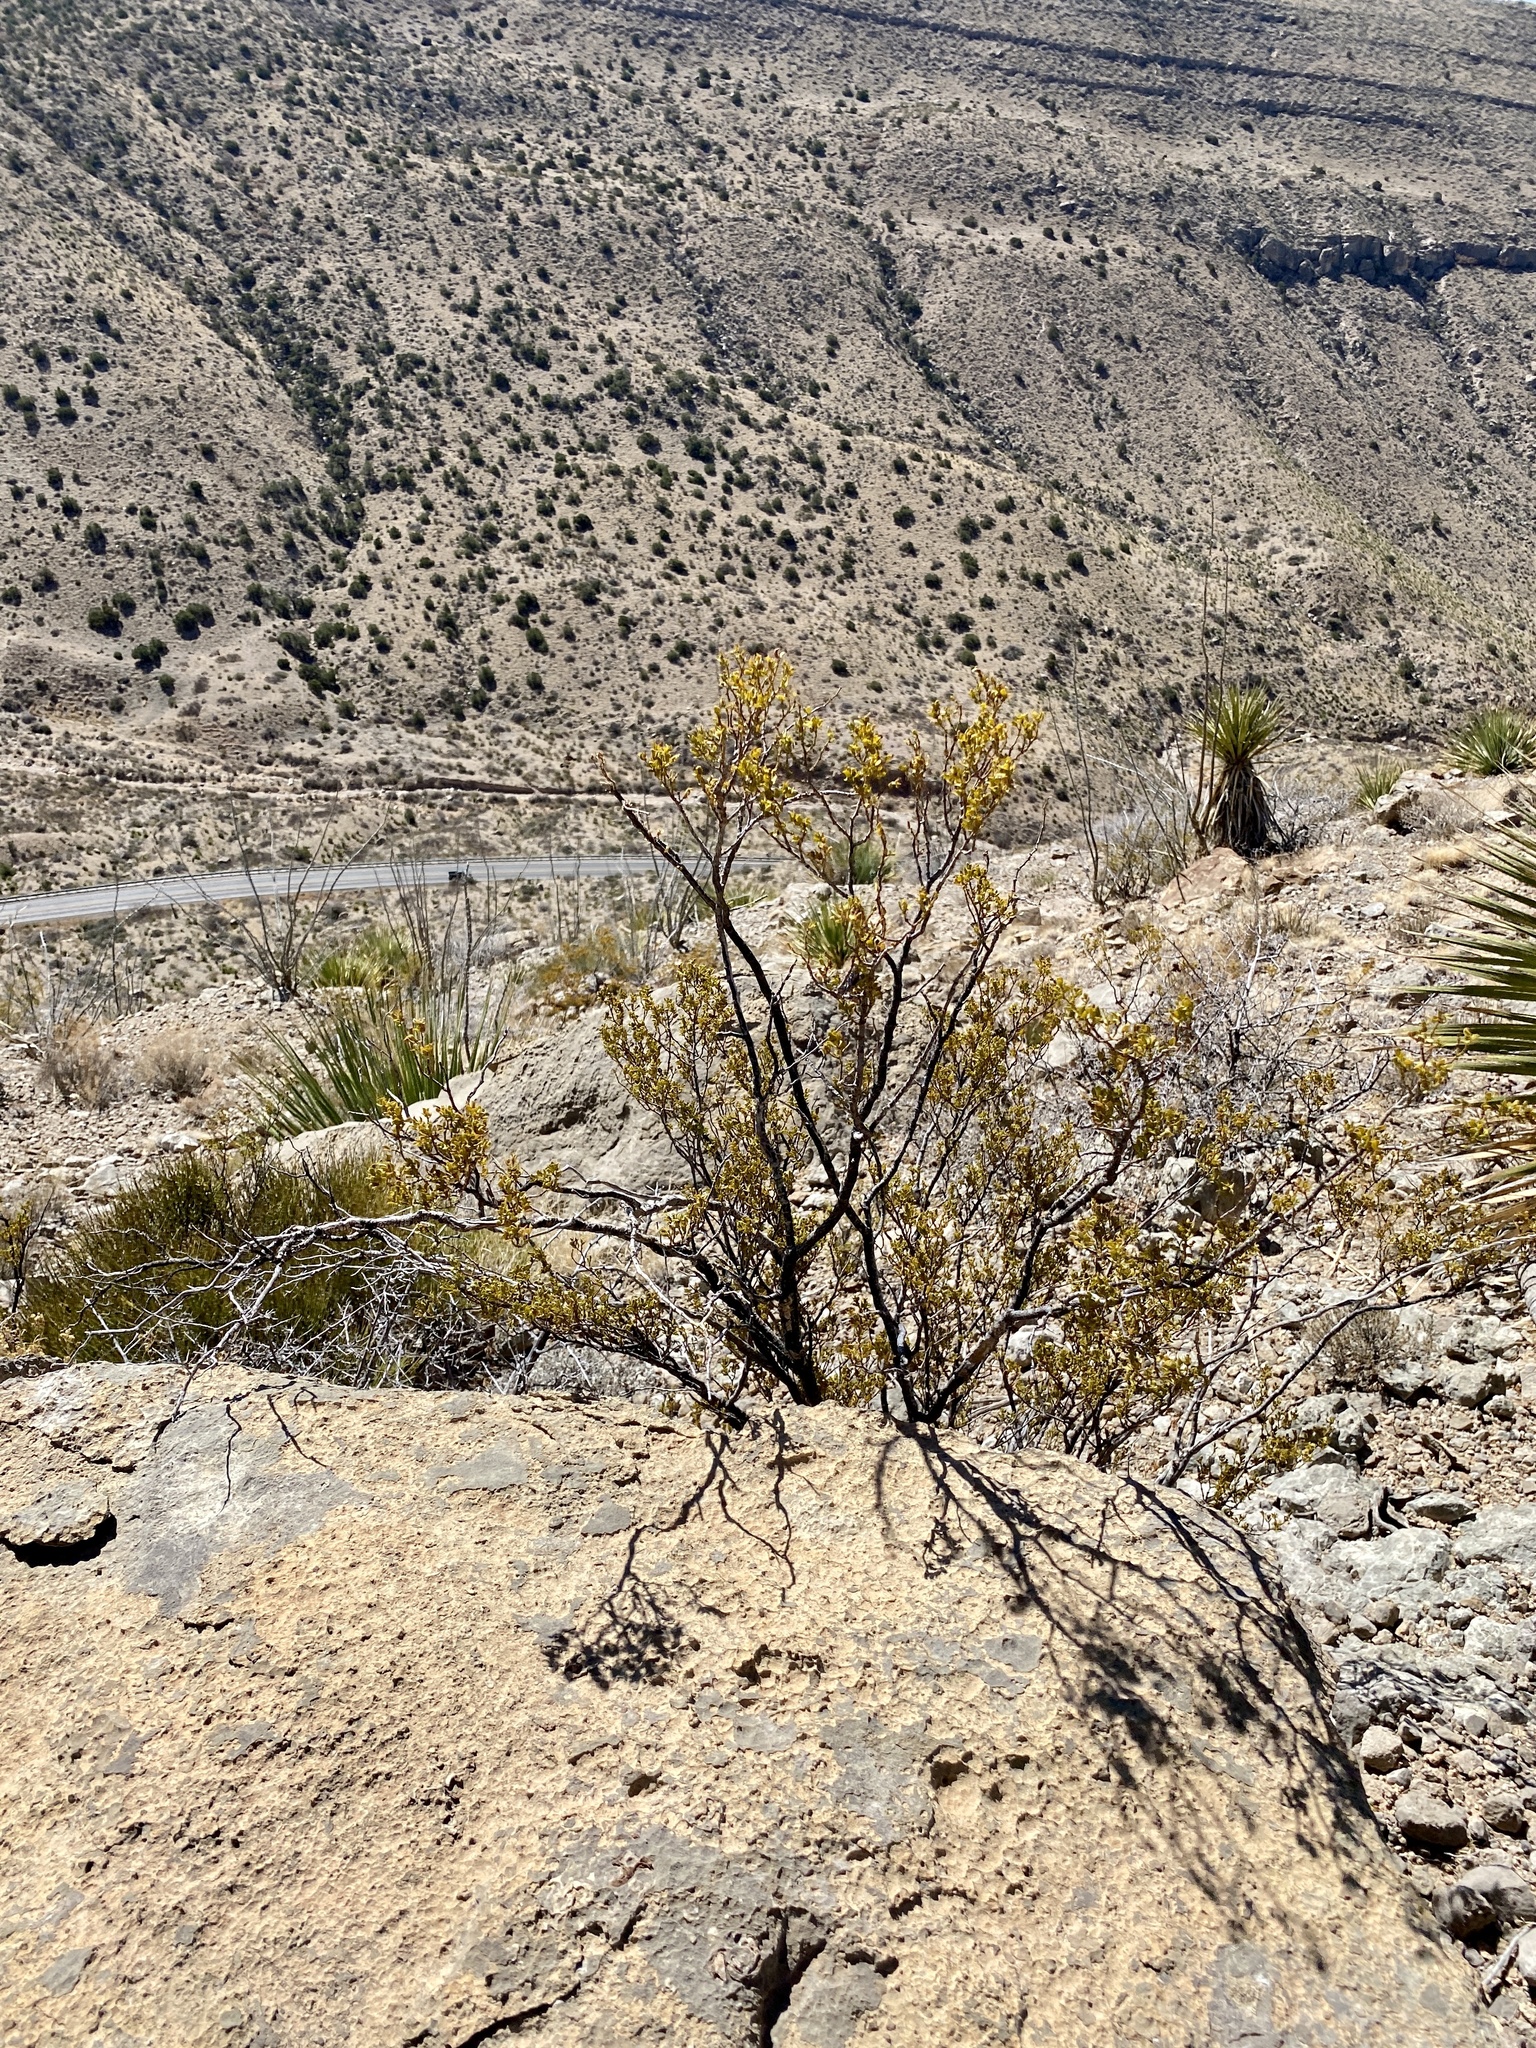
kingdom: Plantae
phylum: Tracheophyta
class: Magnoliopsida
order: Zygophyllales
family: Zygophyllaceae
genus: Larrea
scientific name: Larrea tridentata
